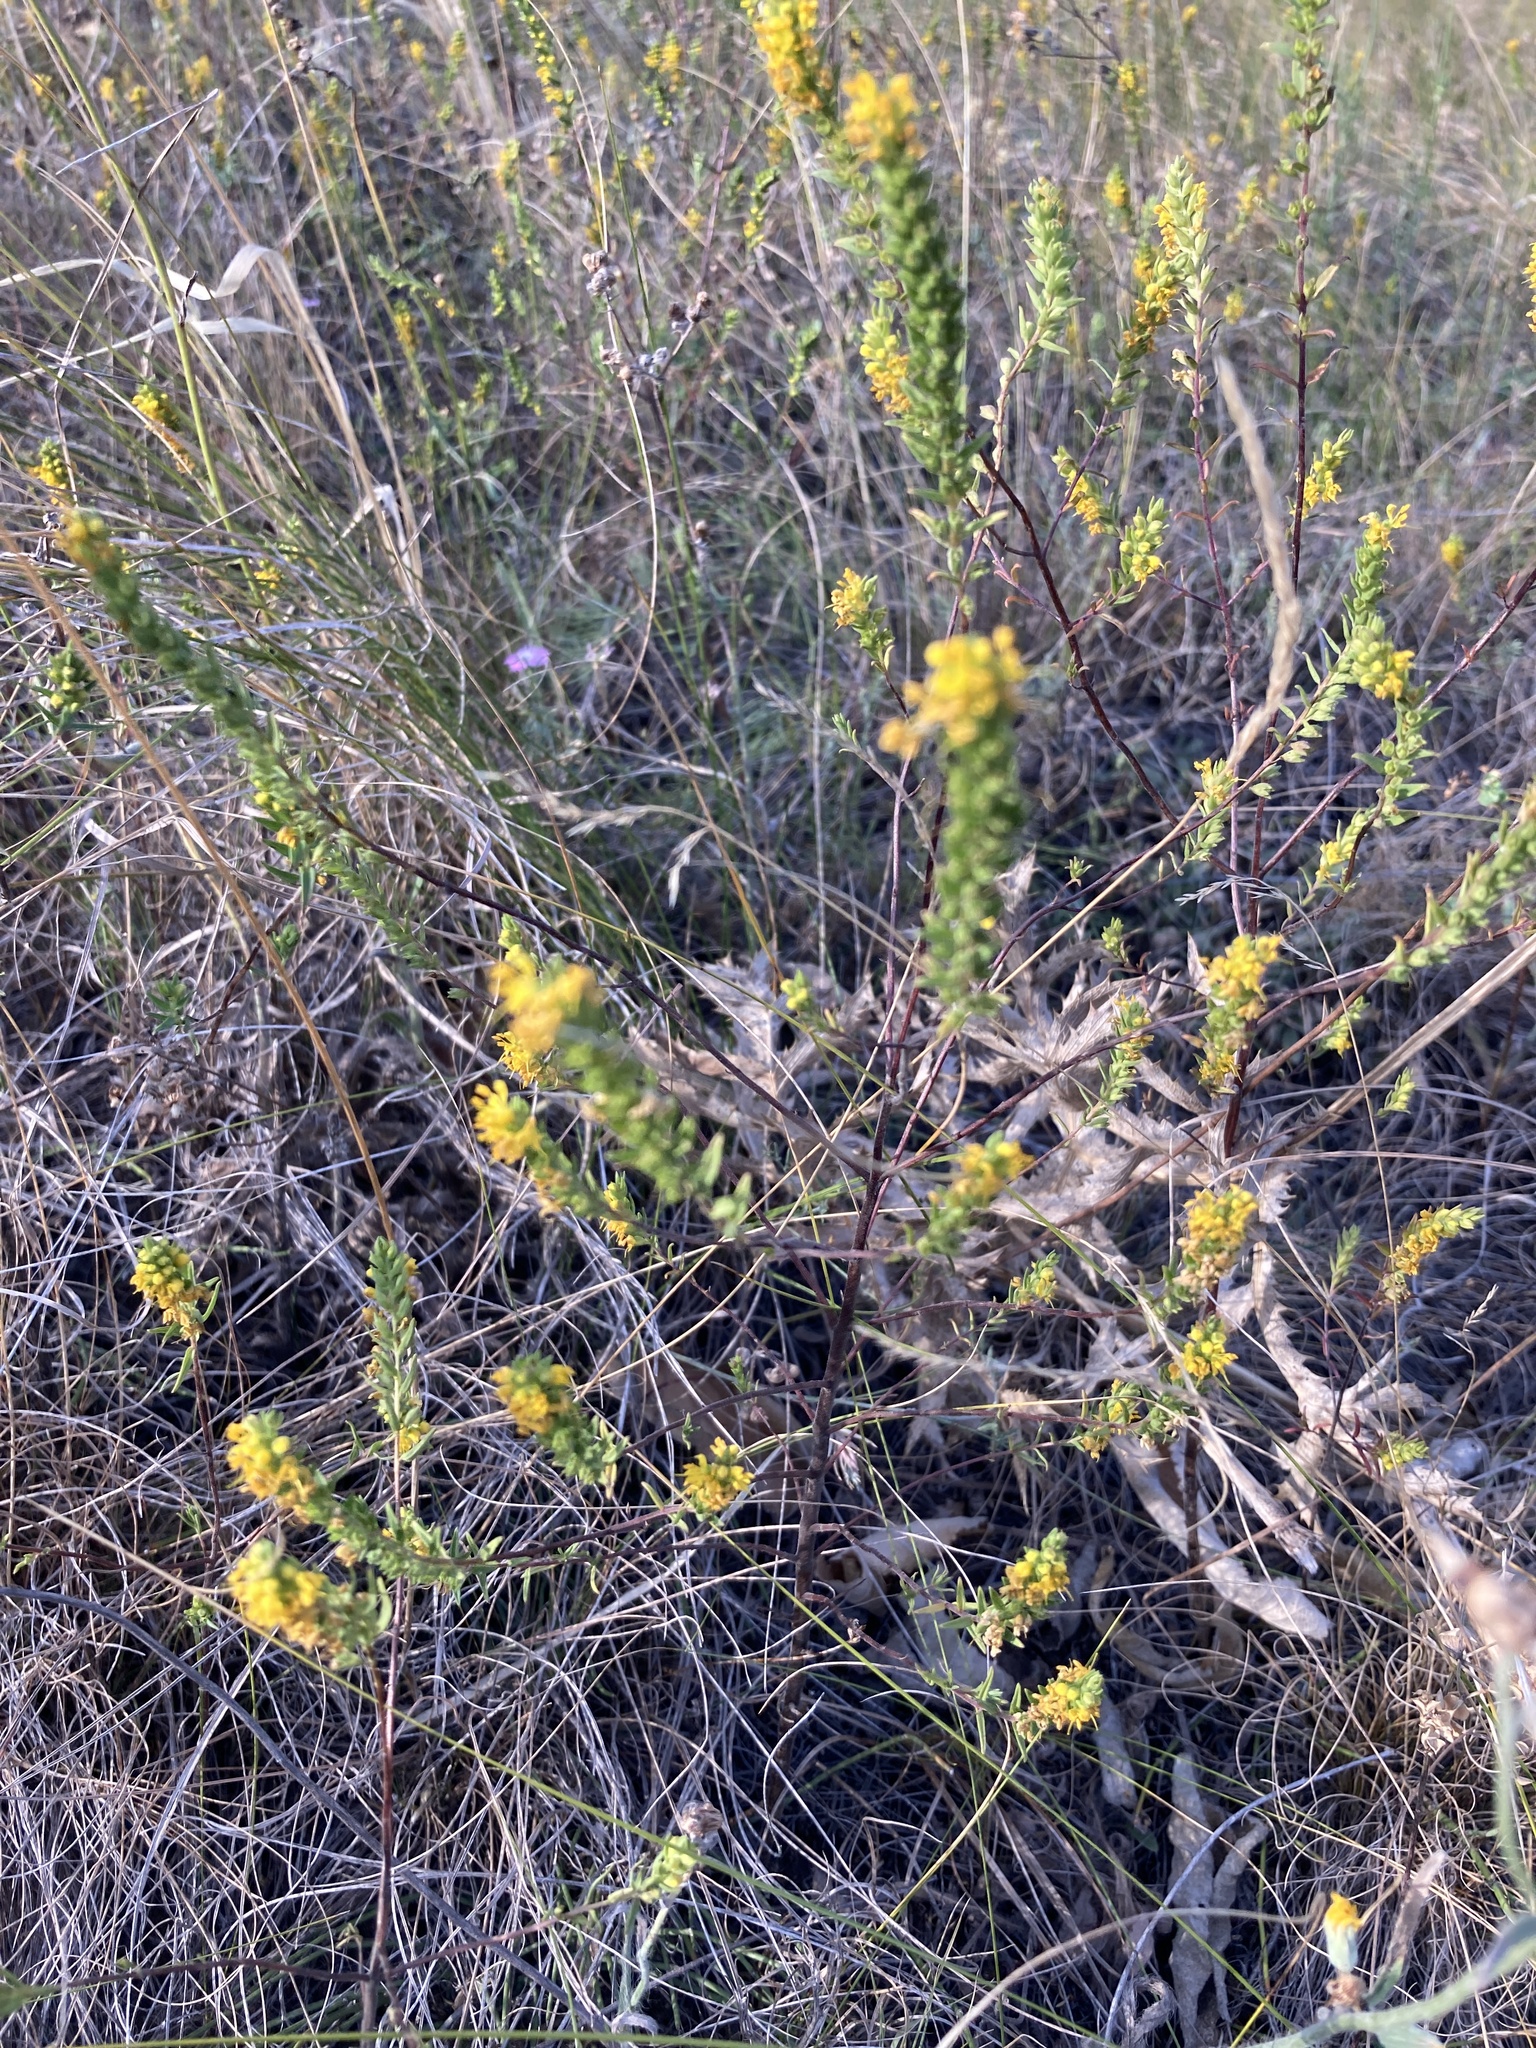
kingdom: Plantae
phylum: Tracheophyta
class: Magnoliopsida
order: Lamiales
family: Orobanchaceae
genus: Odontites
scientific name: Odontites luteus
